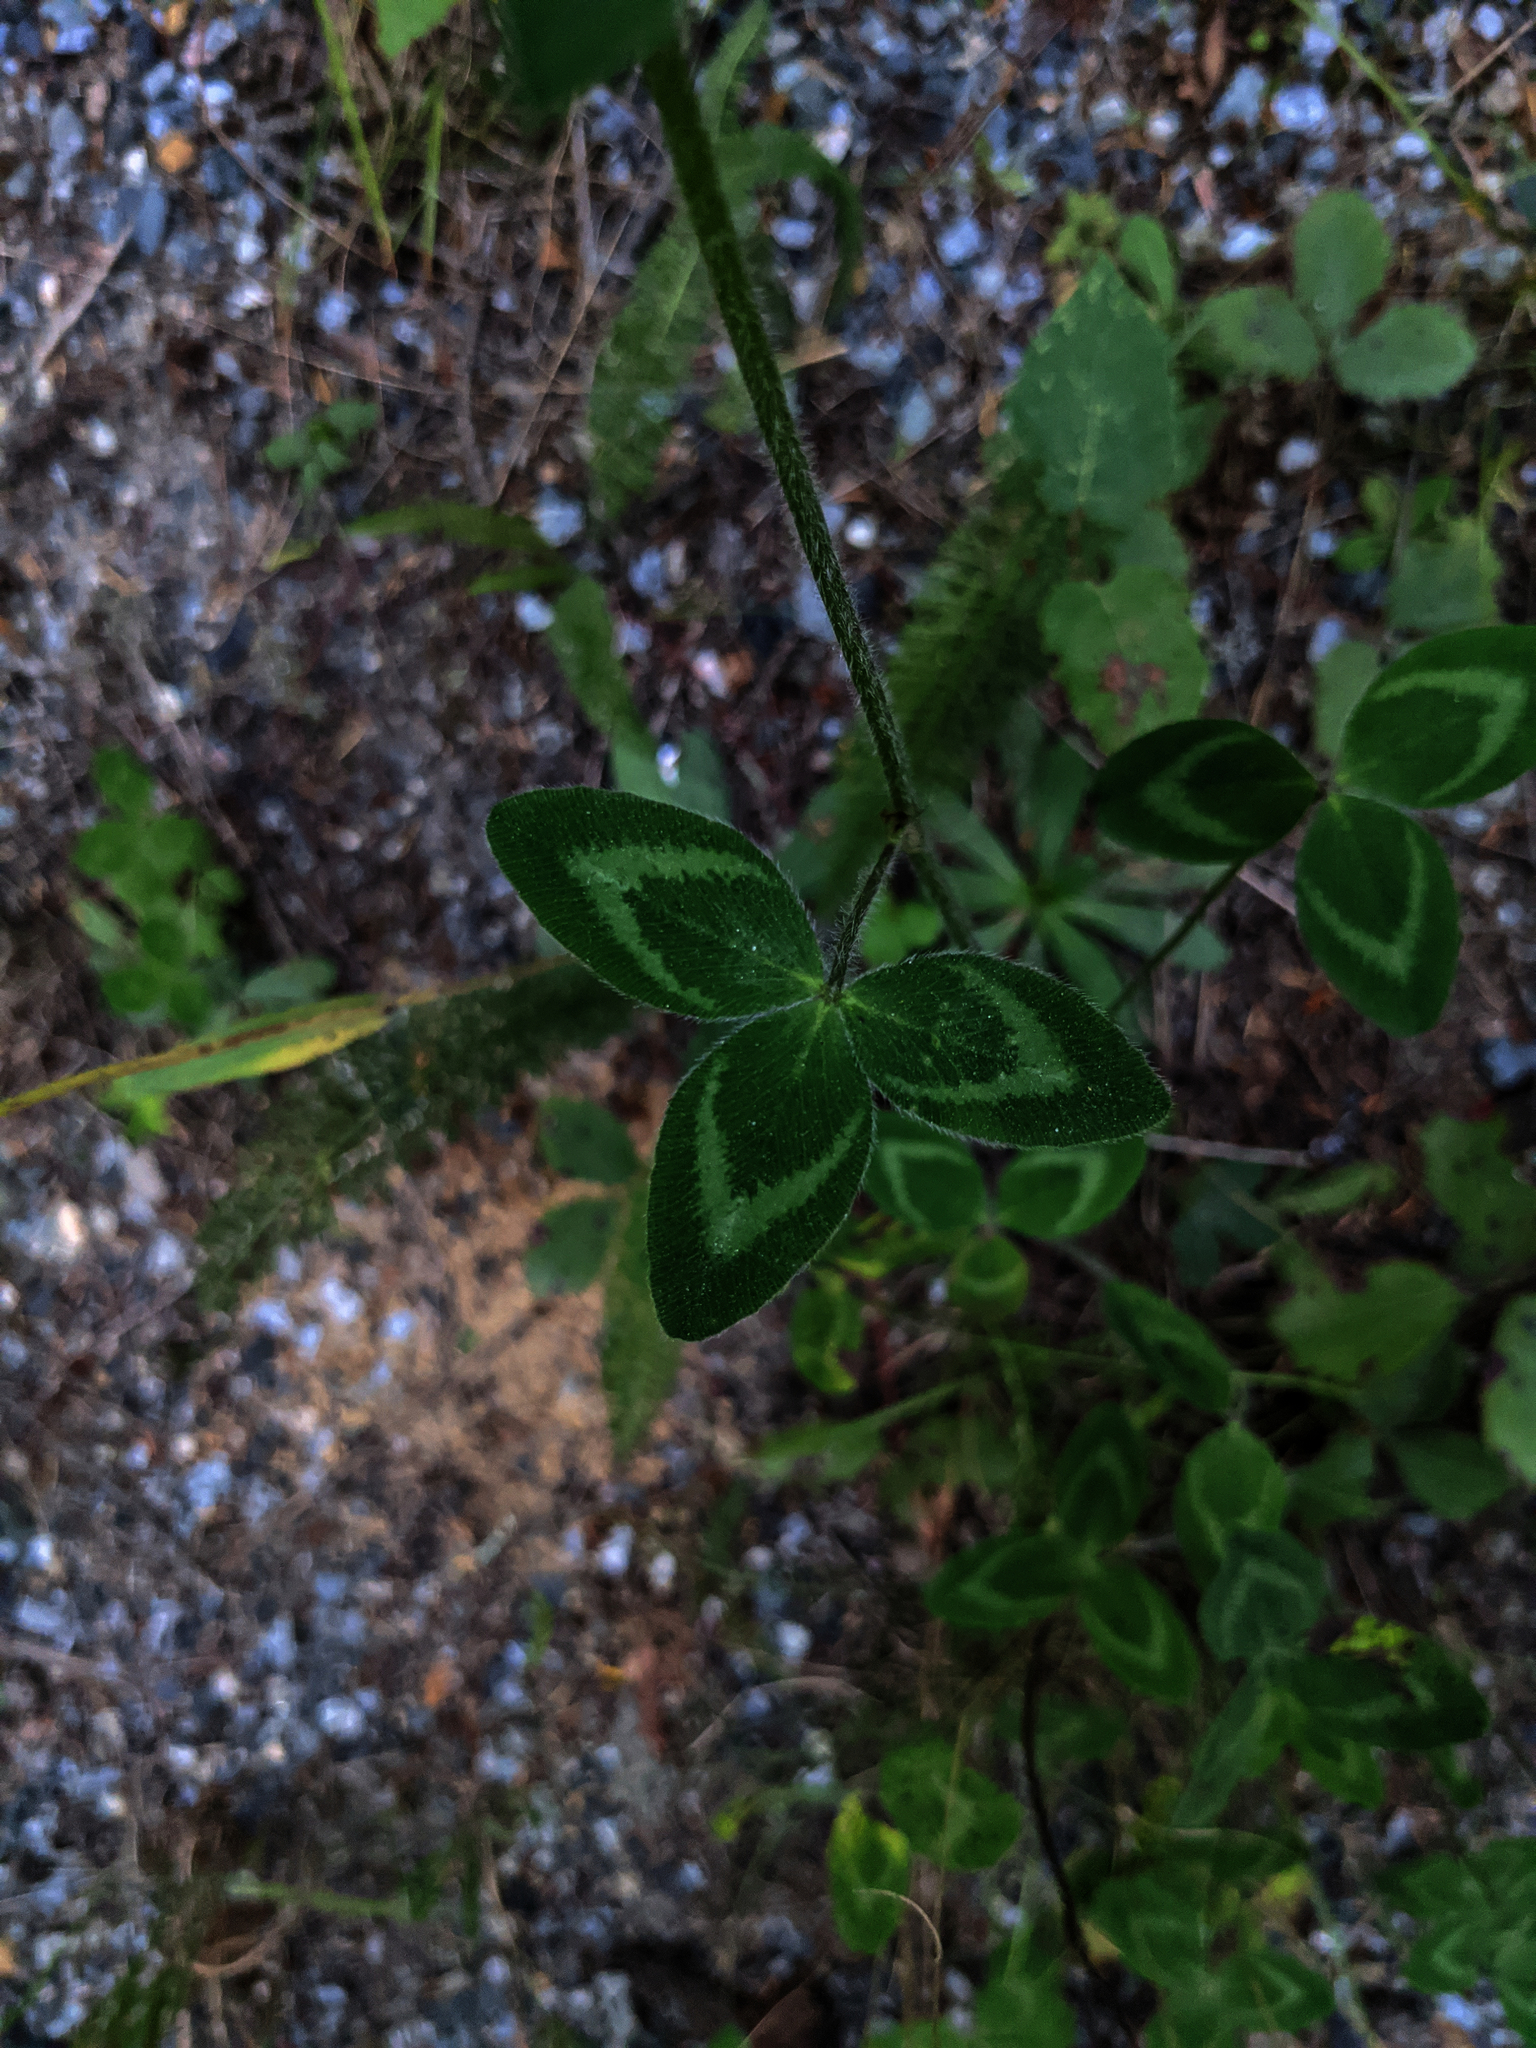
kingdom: Plantae
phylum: Tracheophyta
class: Magnoliopsida
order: Fabales
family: Fabaceae
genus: Trifolium
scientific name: Trifolium pratense
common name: Red clover
